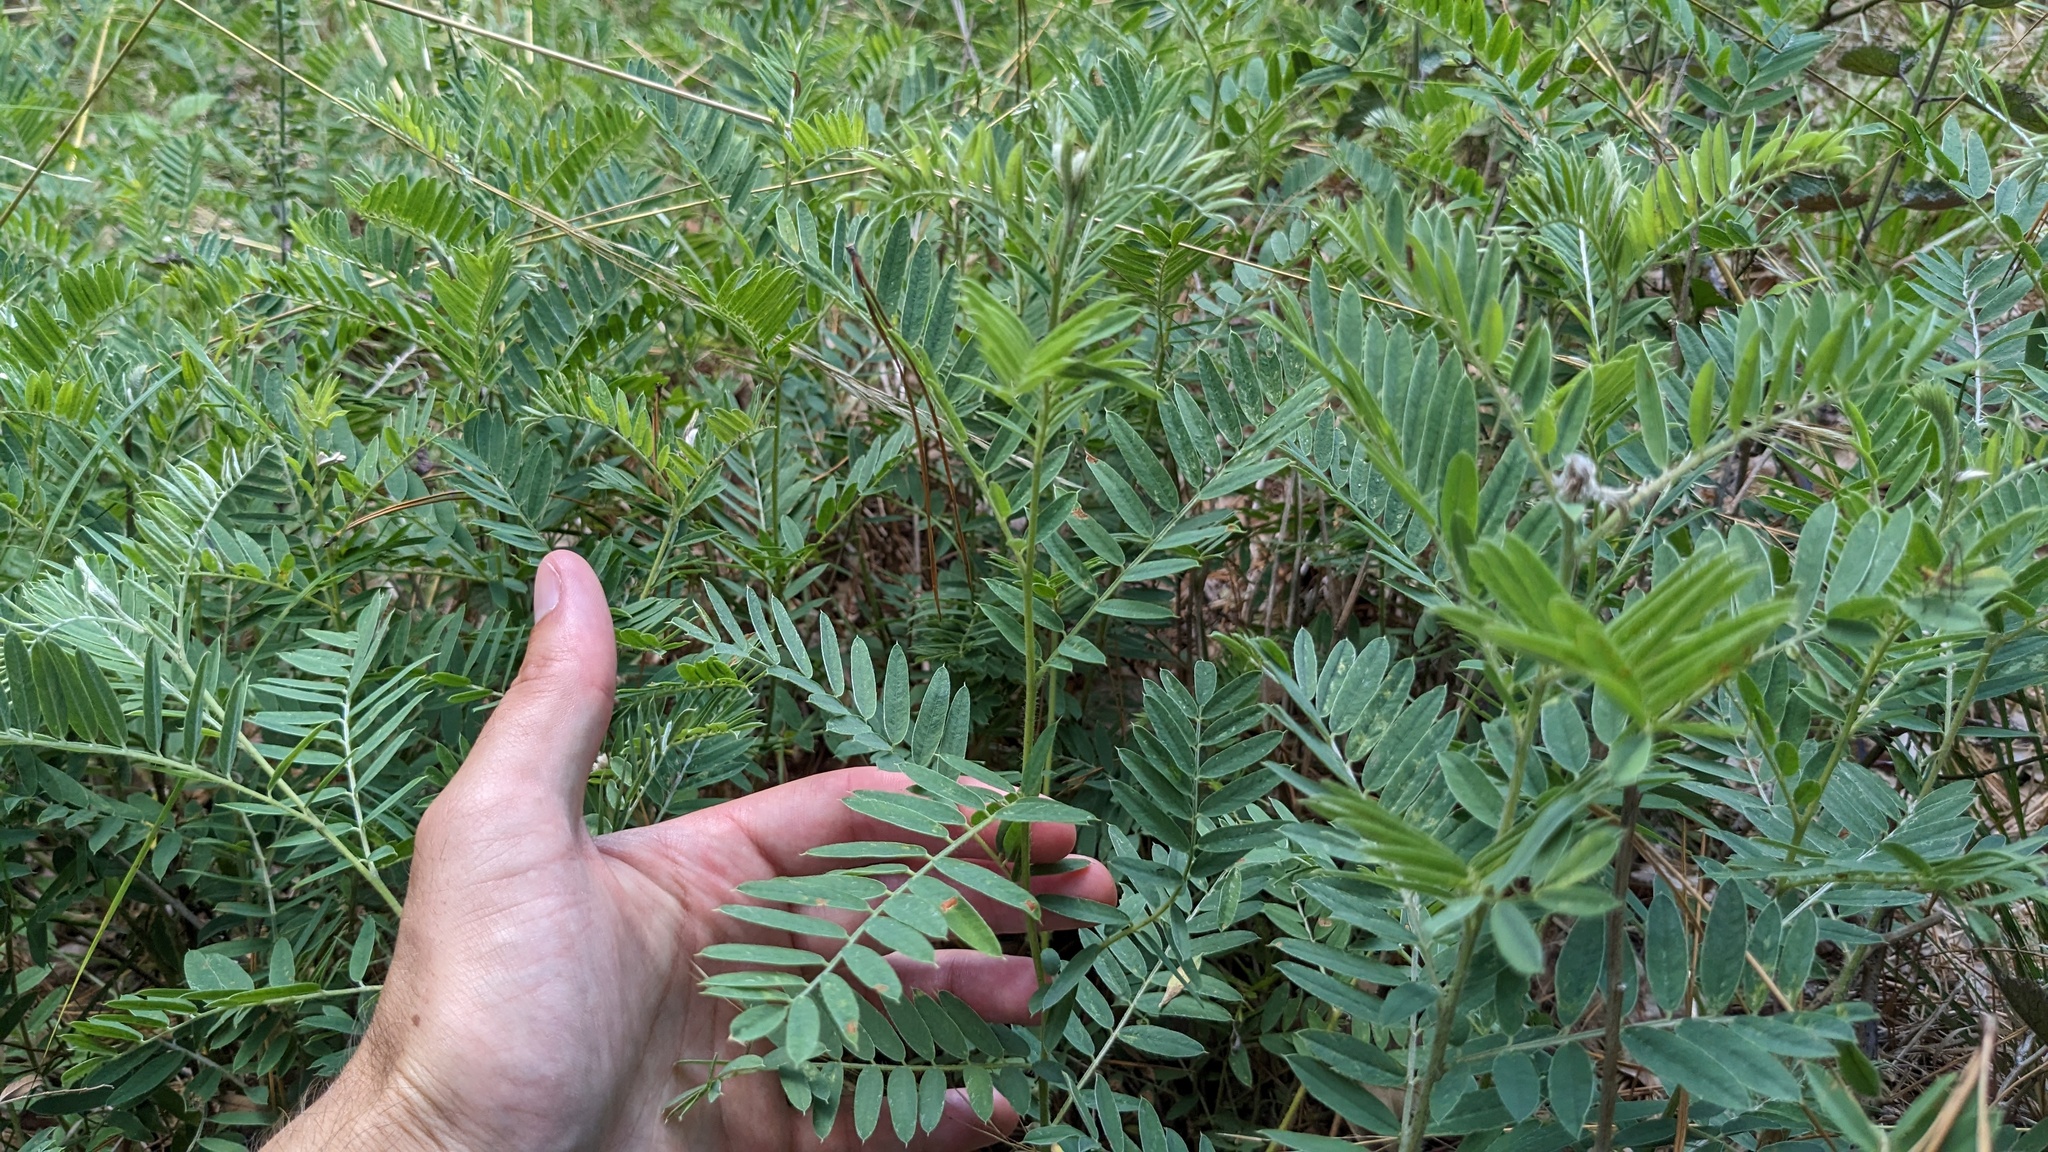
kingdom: Plantae
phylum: Tracheophyta
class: Magnoliopsida
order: Fabales
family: Fabaceae
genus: Tephrosia
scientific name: Tephrosia virginiana
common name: Rabbit-pea
